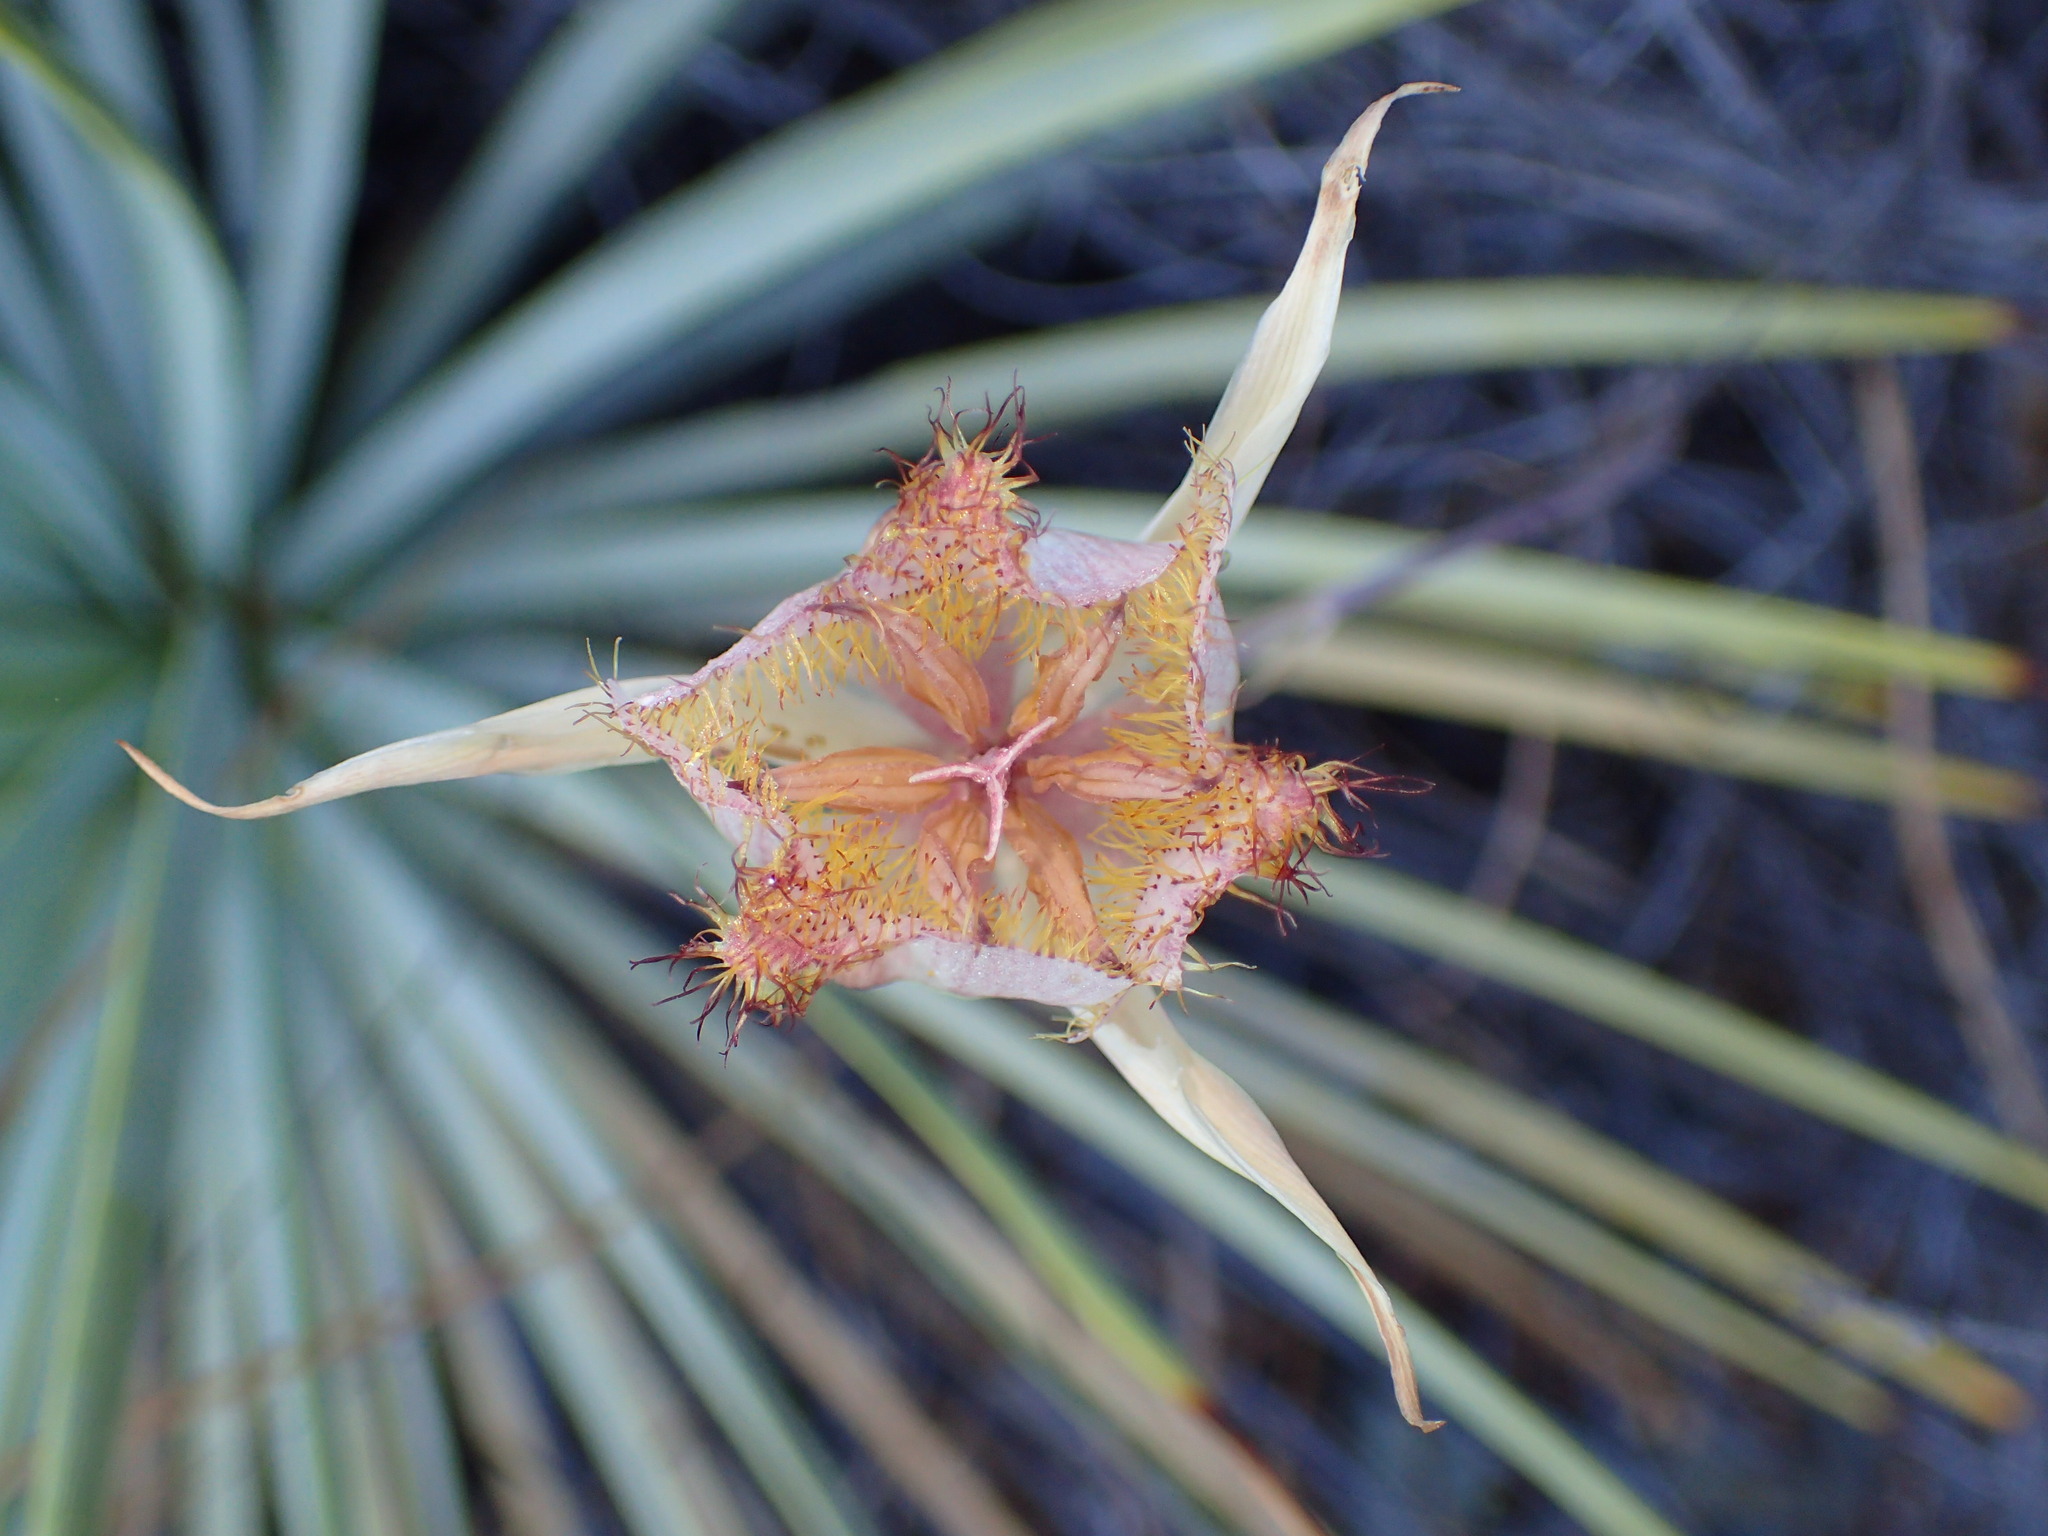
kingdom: Plantae
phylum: Tracheophyta
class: Liliopsida
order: Liliales
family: Liliaceae
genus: Calochortus
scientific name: Calochortus fimbriatus
